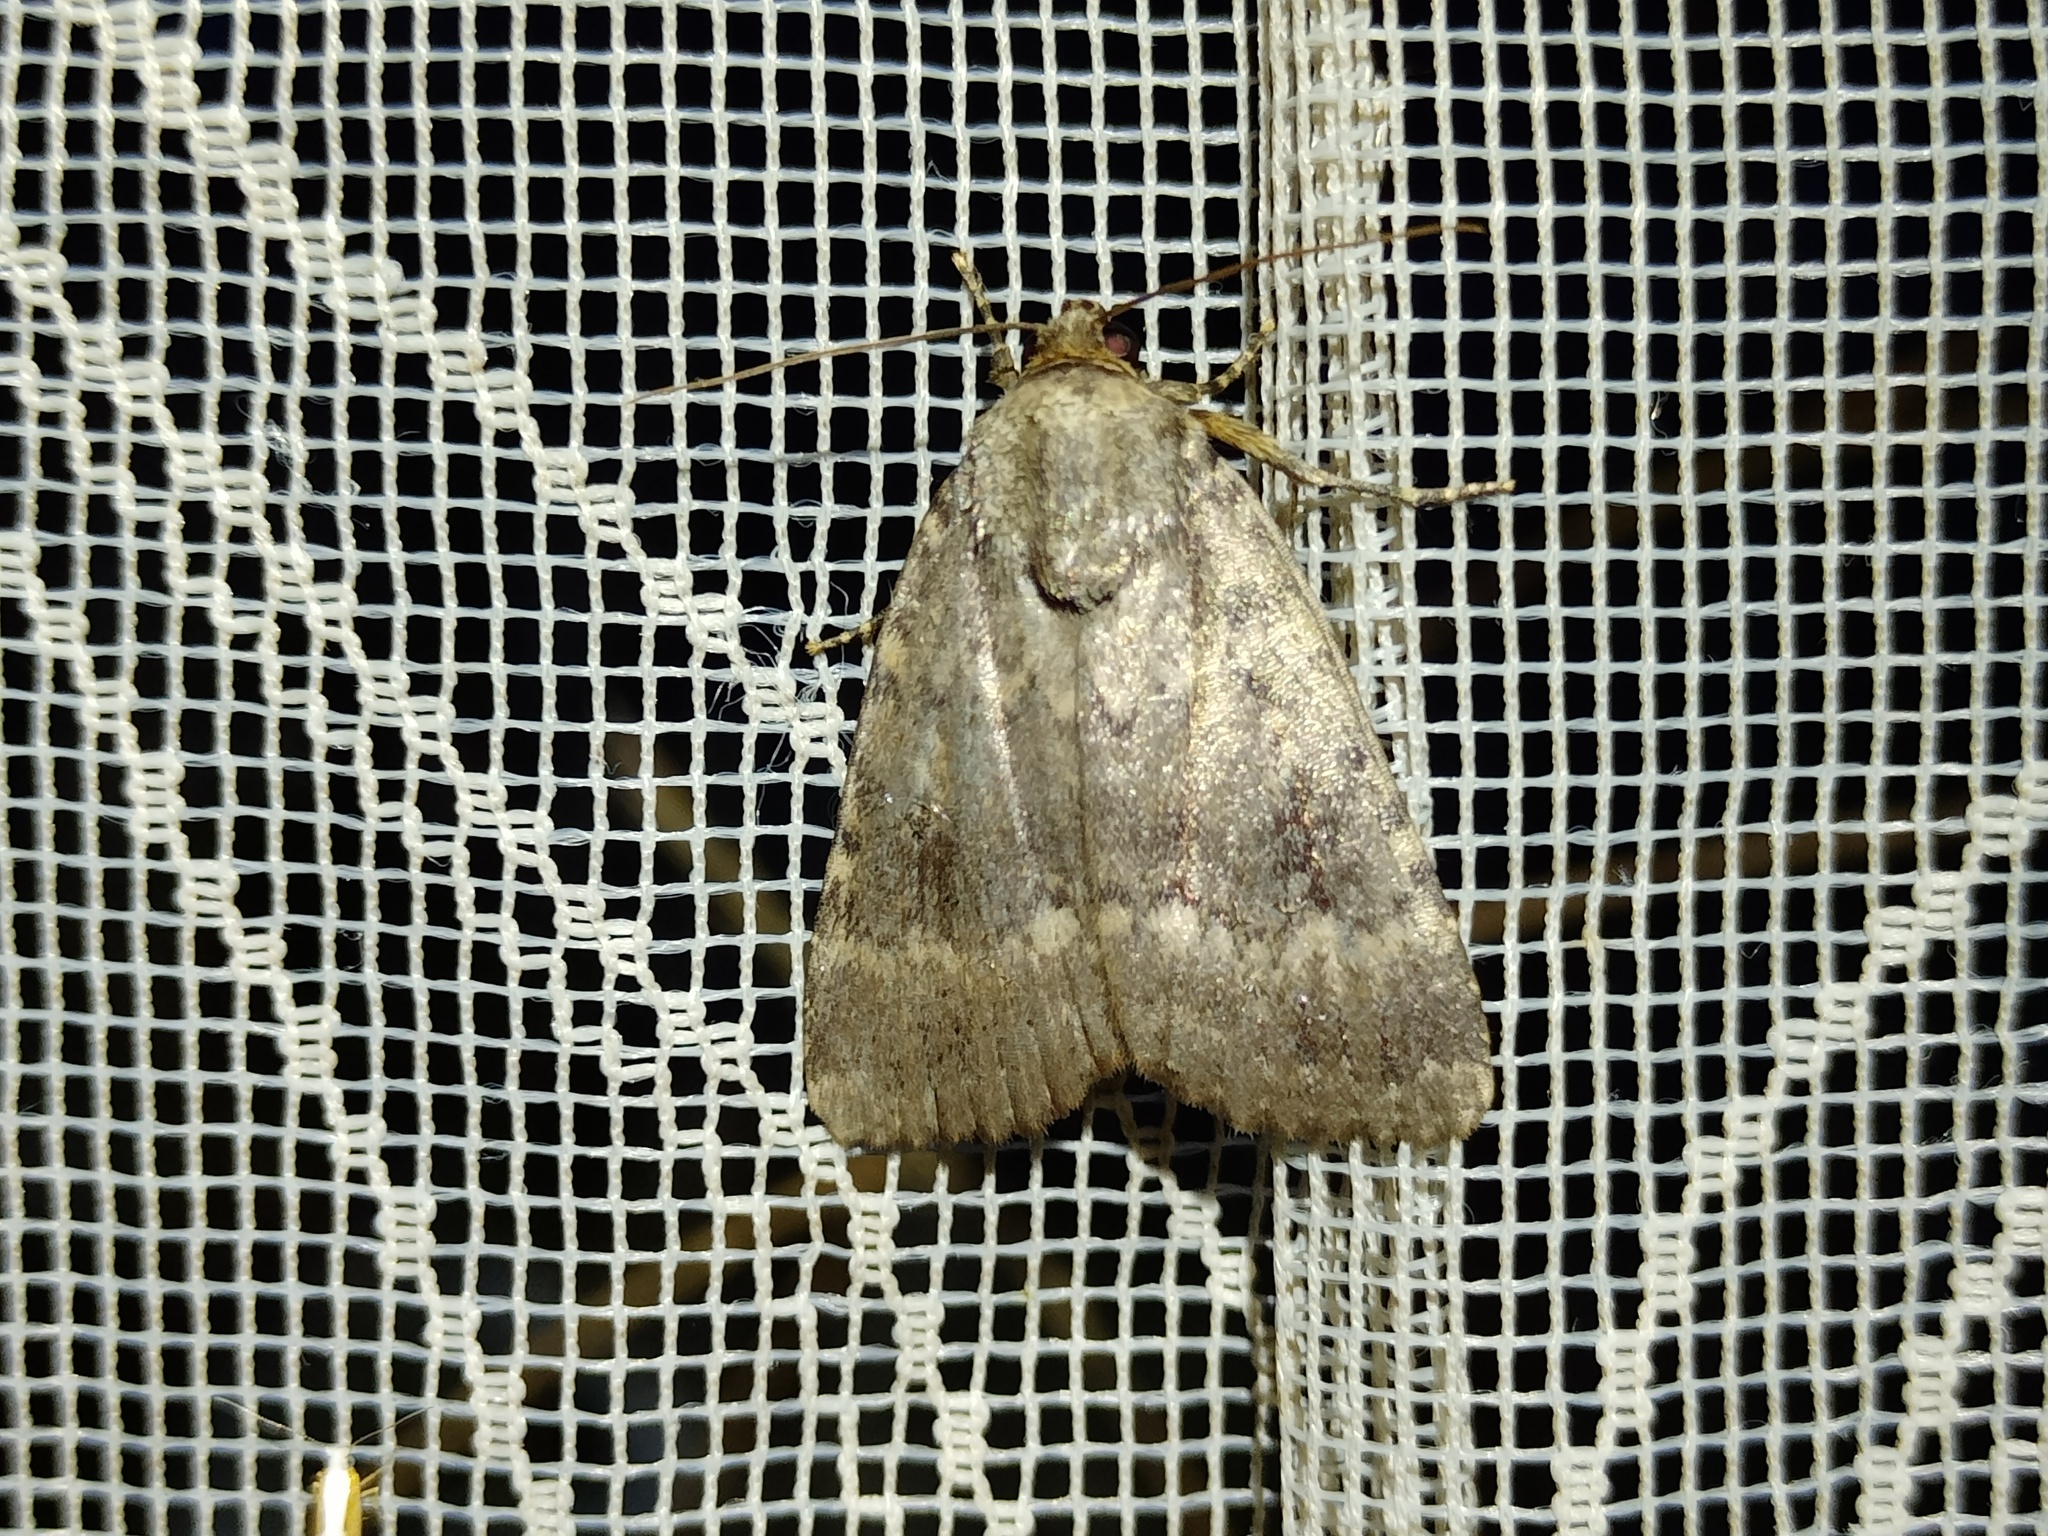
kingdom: Animalia
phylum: Arthropoda
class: Insecta
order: Lepidoptera
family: Noctuidae
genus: Amphipyra
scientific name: Amphipyra pyramidea
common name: Copper underwing
